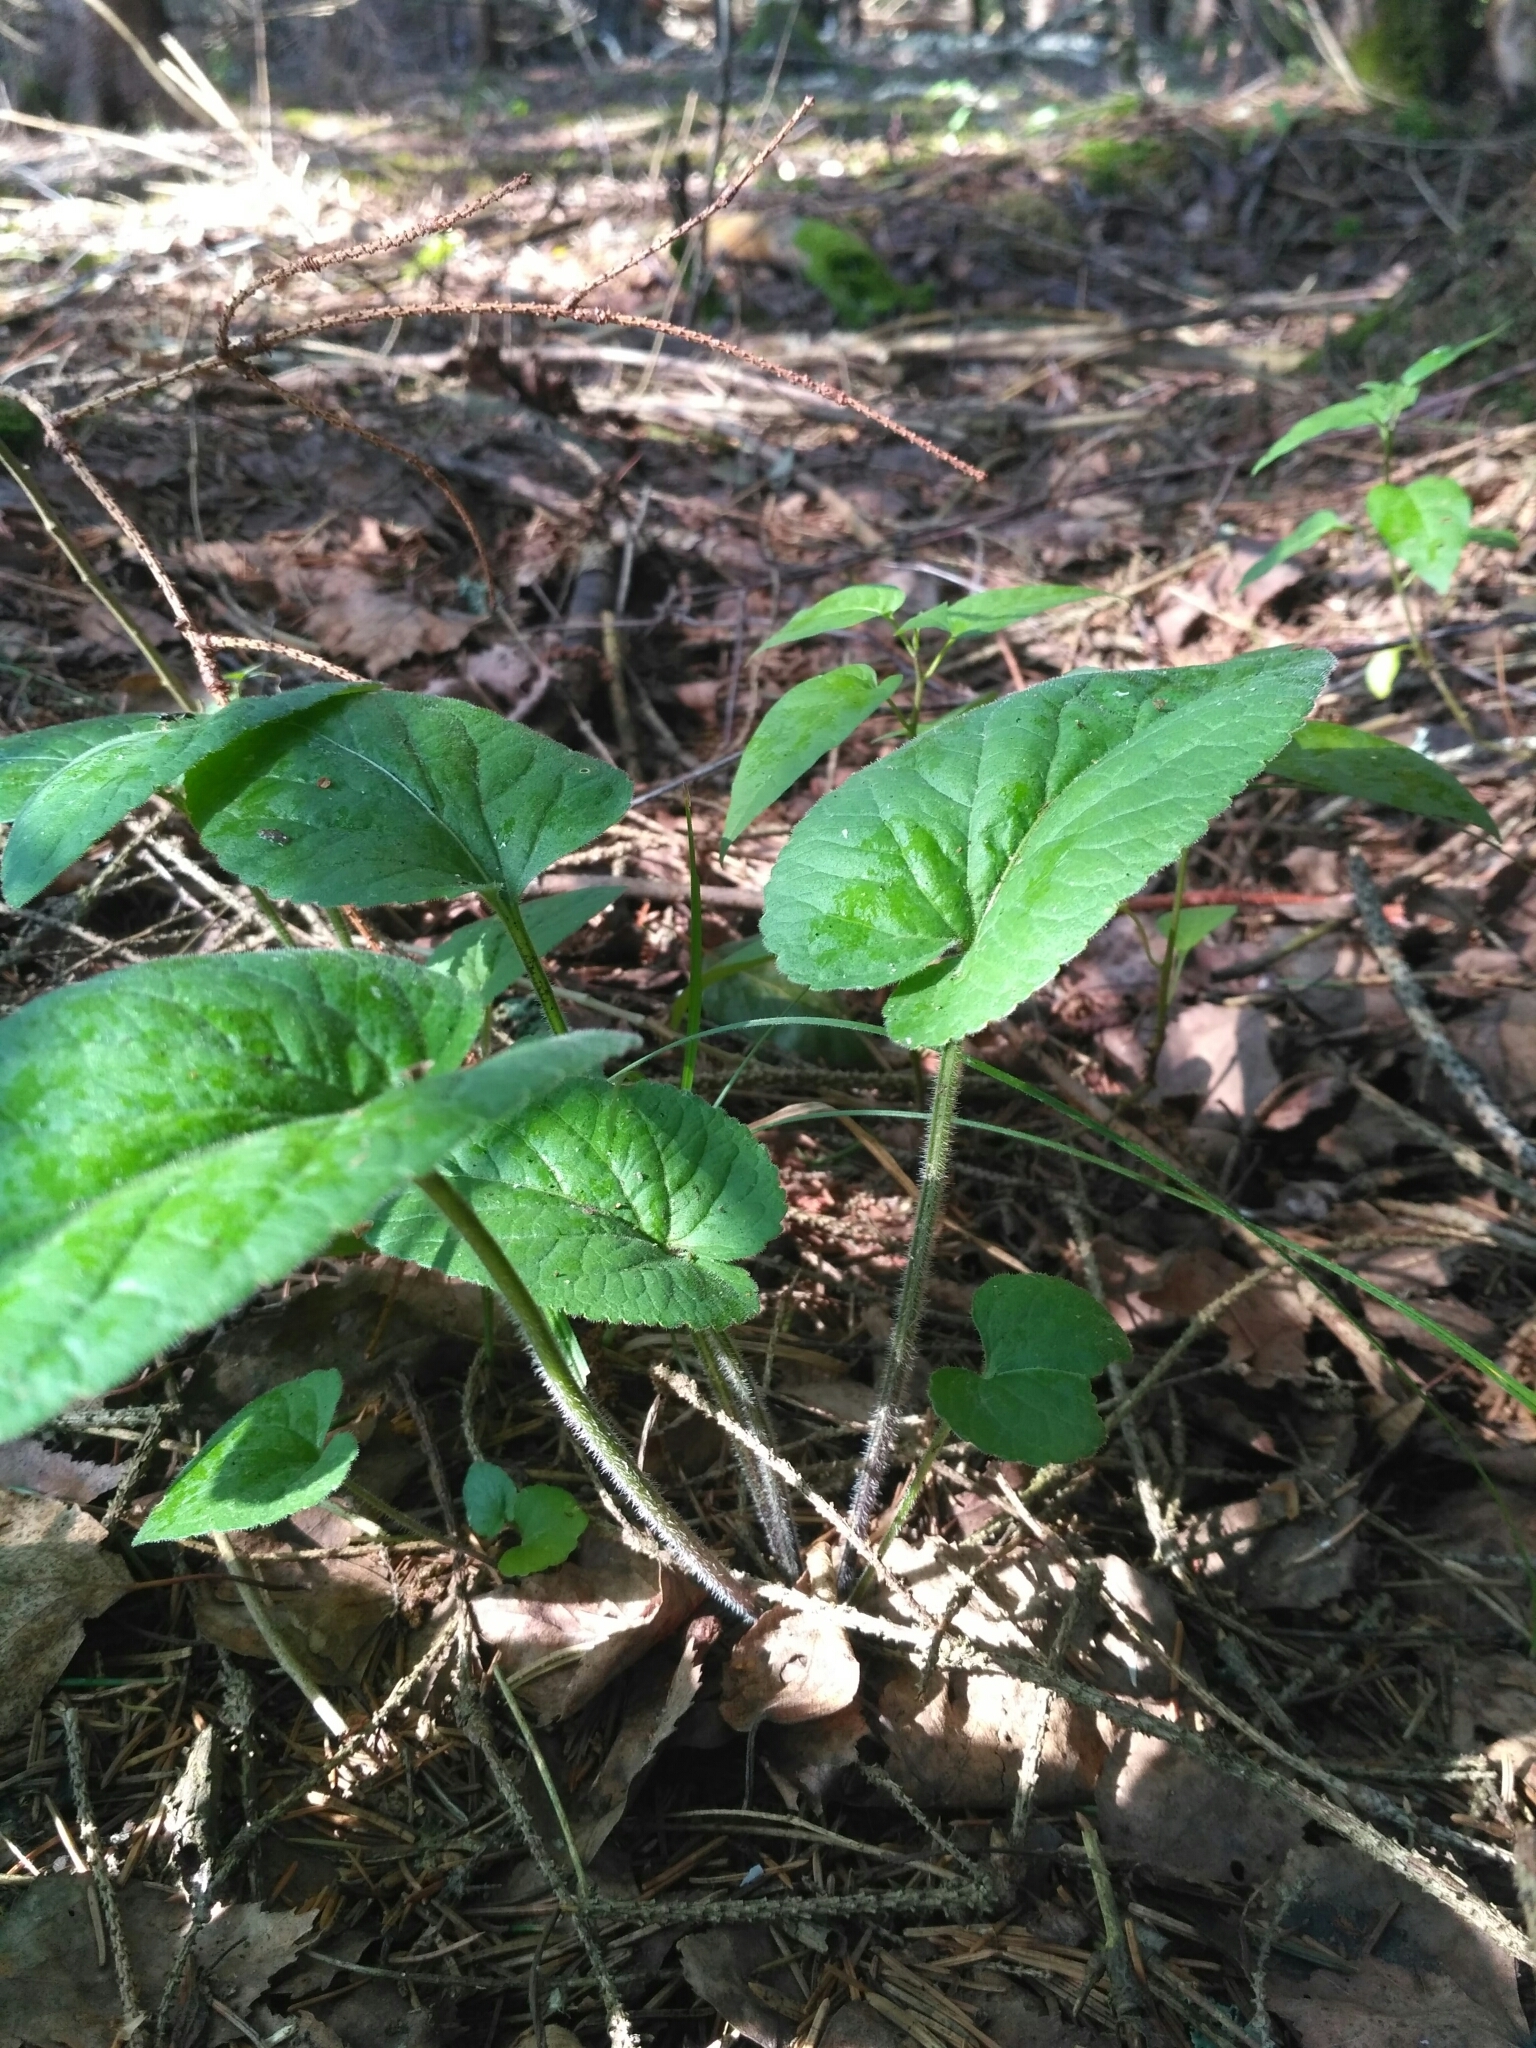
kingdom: Plantae
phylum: Tracheophyta
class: Magnoliopsida
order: Malpighiales
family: Violaceae
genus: Viola
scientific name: Viola hirta
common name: Hairy violet
